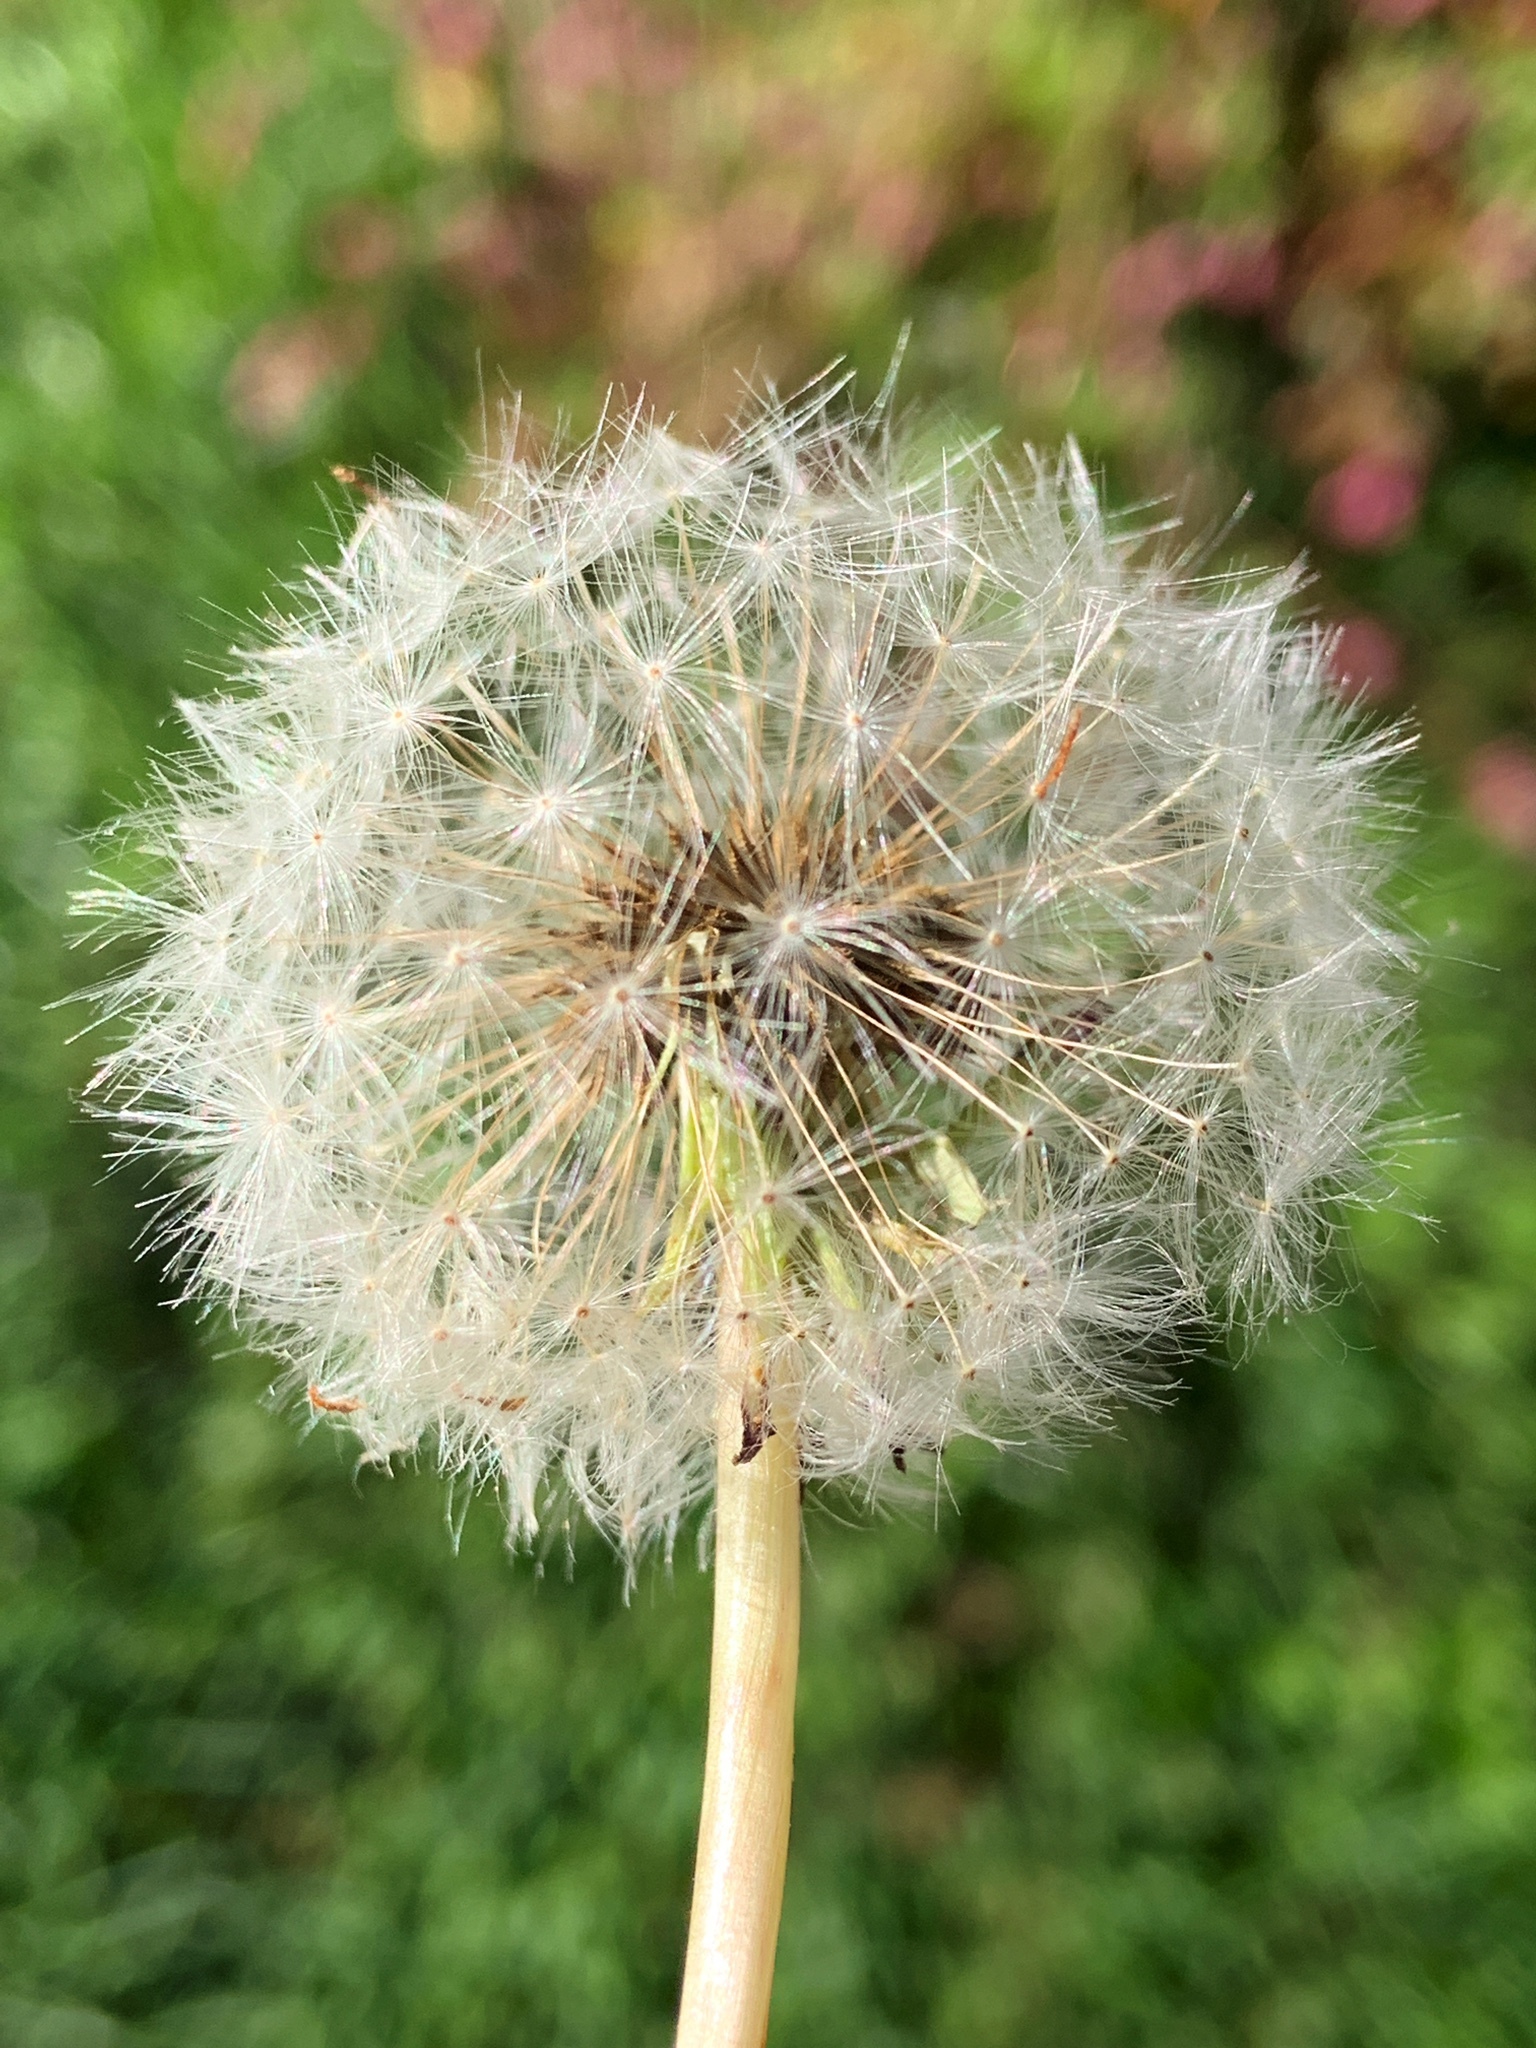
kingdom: Plantae
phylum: Tracheophyta
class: Magnoliopsida
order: Asterales
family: Asteraceae
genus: Taraxacum
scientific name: Taraxacum officinale
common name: Common dandelion
